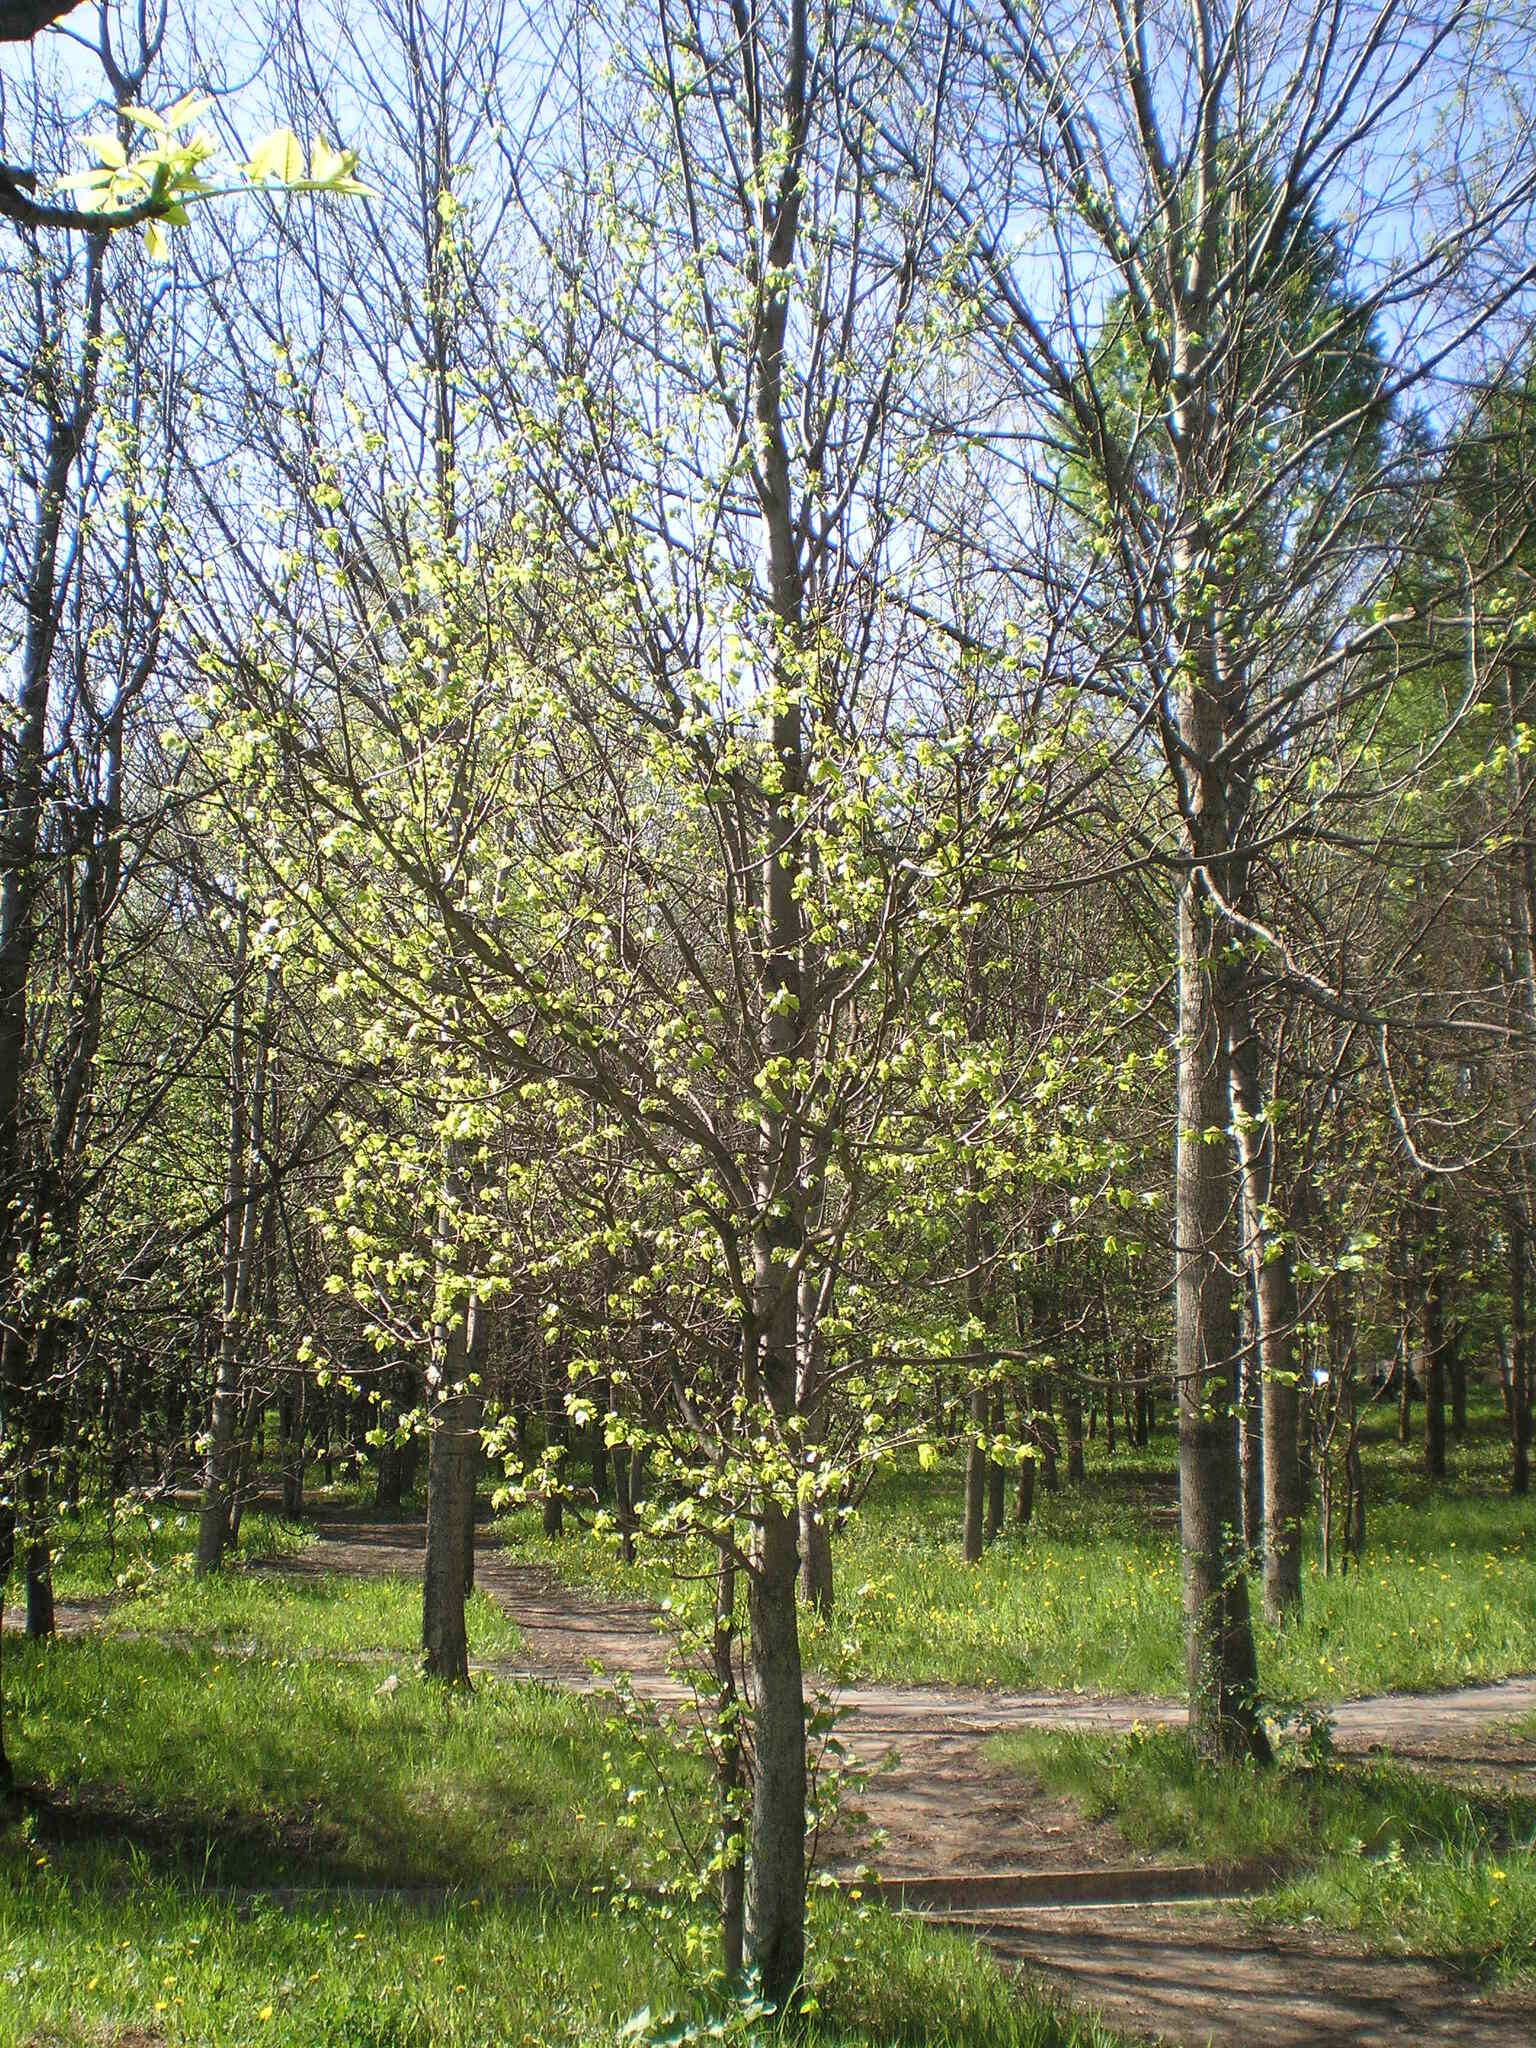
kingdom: Plantae
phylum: Tracheophyta
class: Magnoliopsida
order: Malvales
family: Malvaceae
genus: Tilia
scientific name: Tilia cordata
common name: Small-leaved lime
